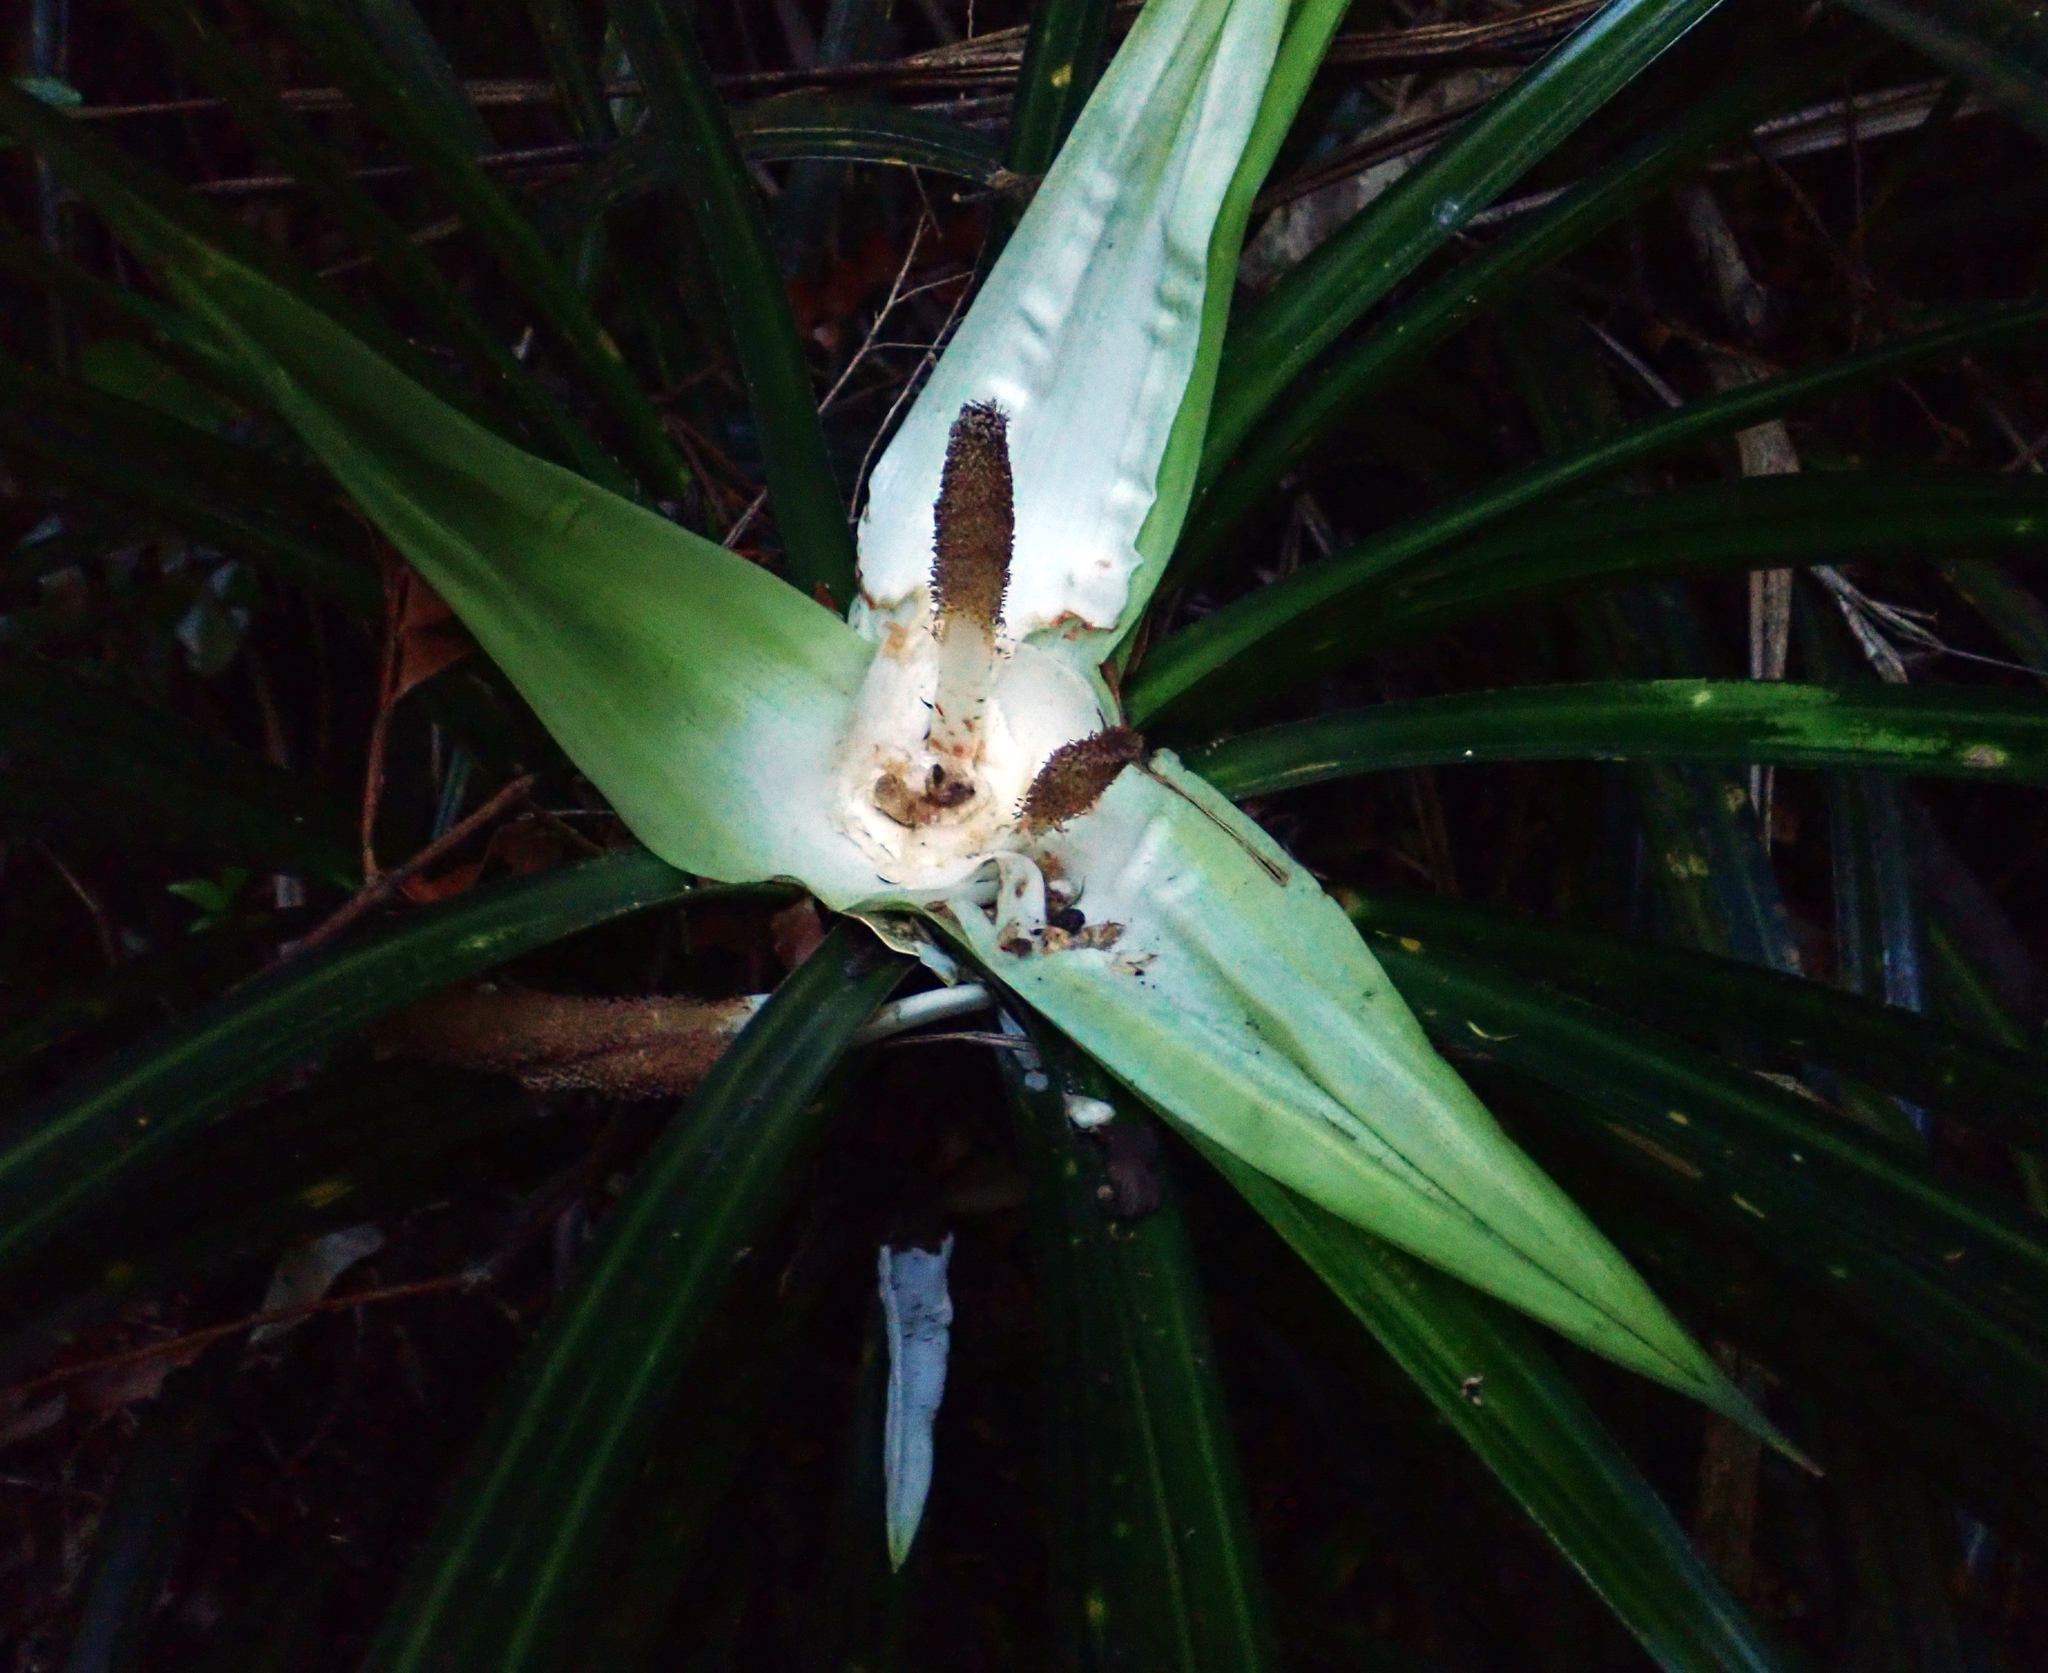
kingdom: Plantae
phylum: Tracheophyta
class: Liliopsida
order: Pandanales
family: Pandanaceae
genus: Freycinetia
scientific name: Freycinetia banksii
